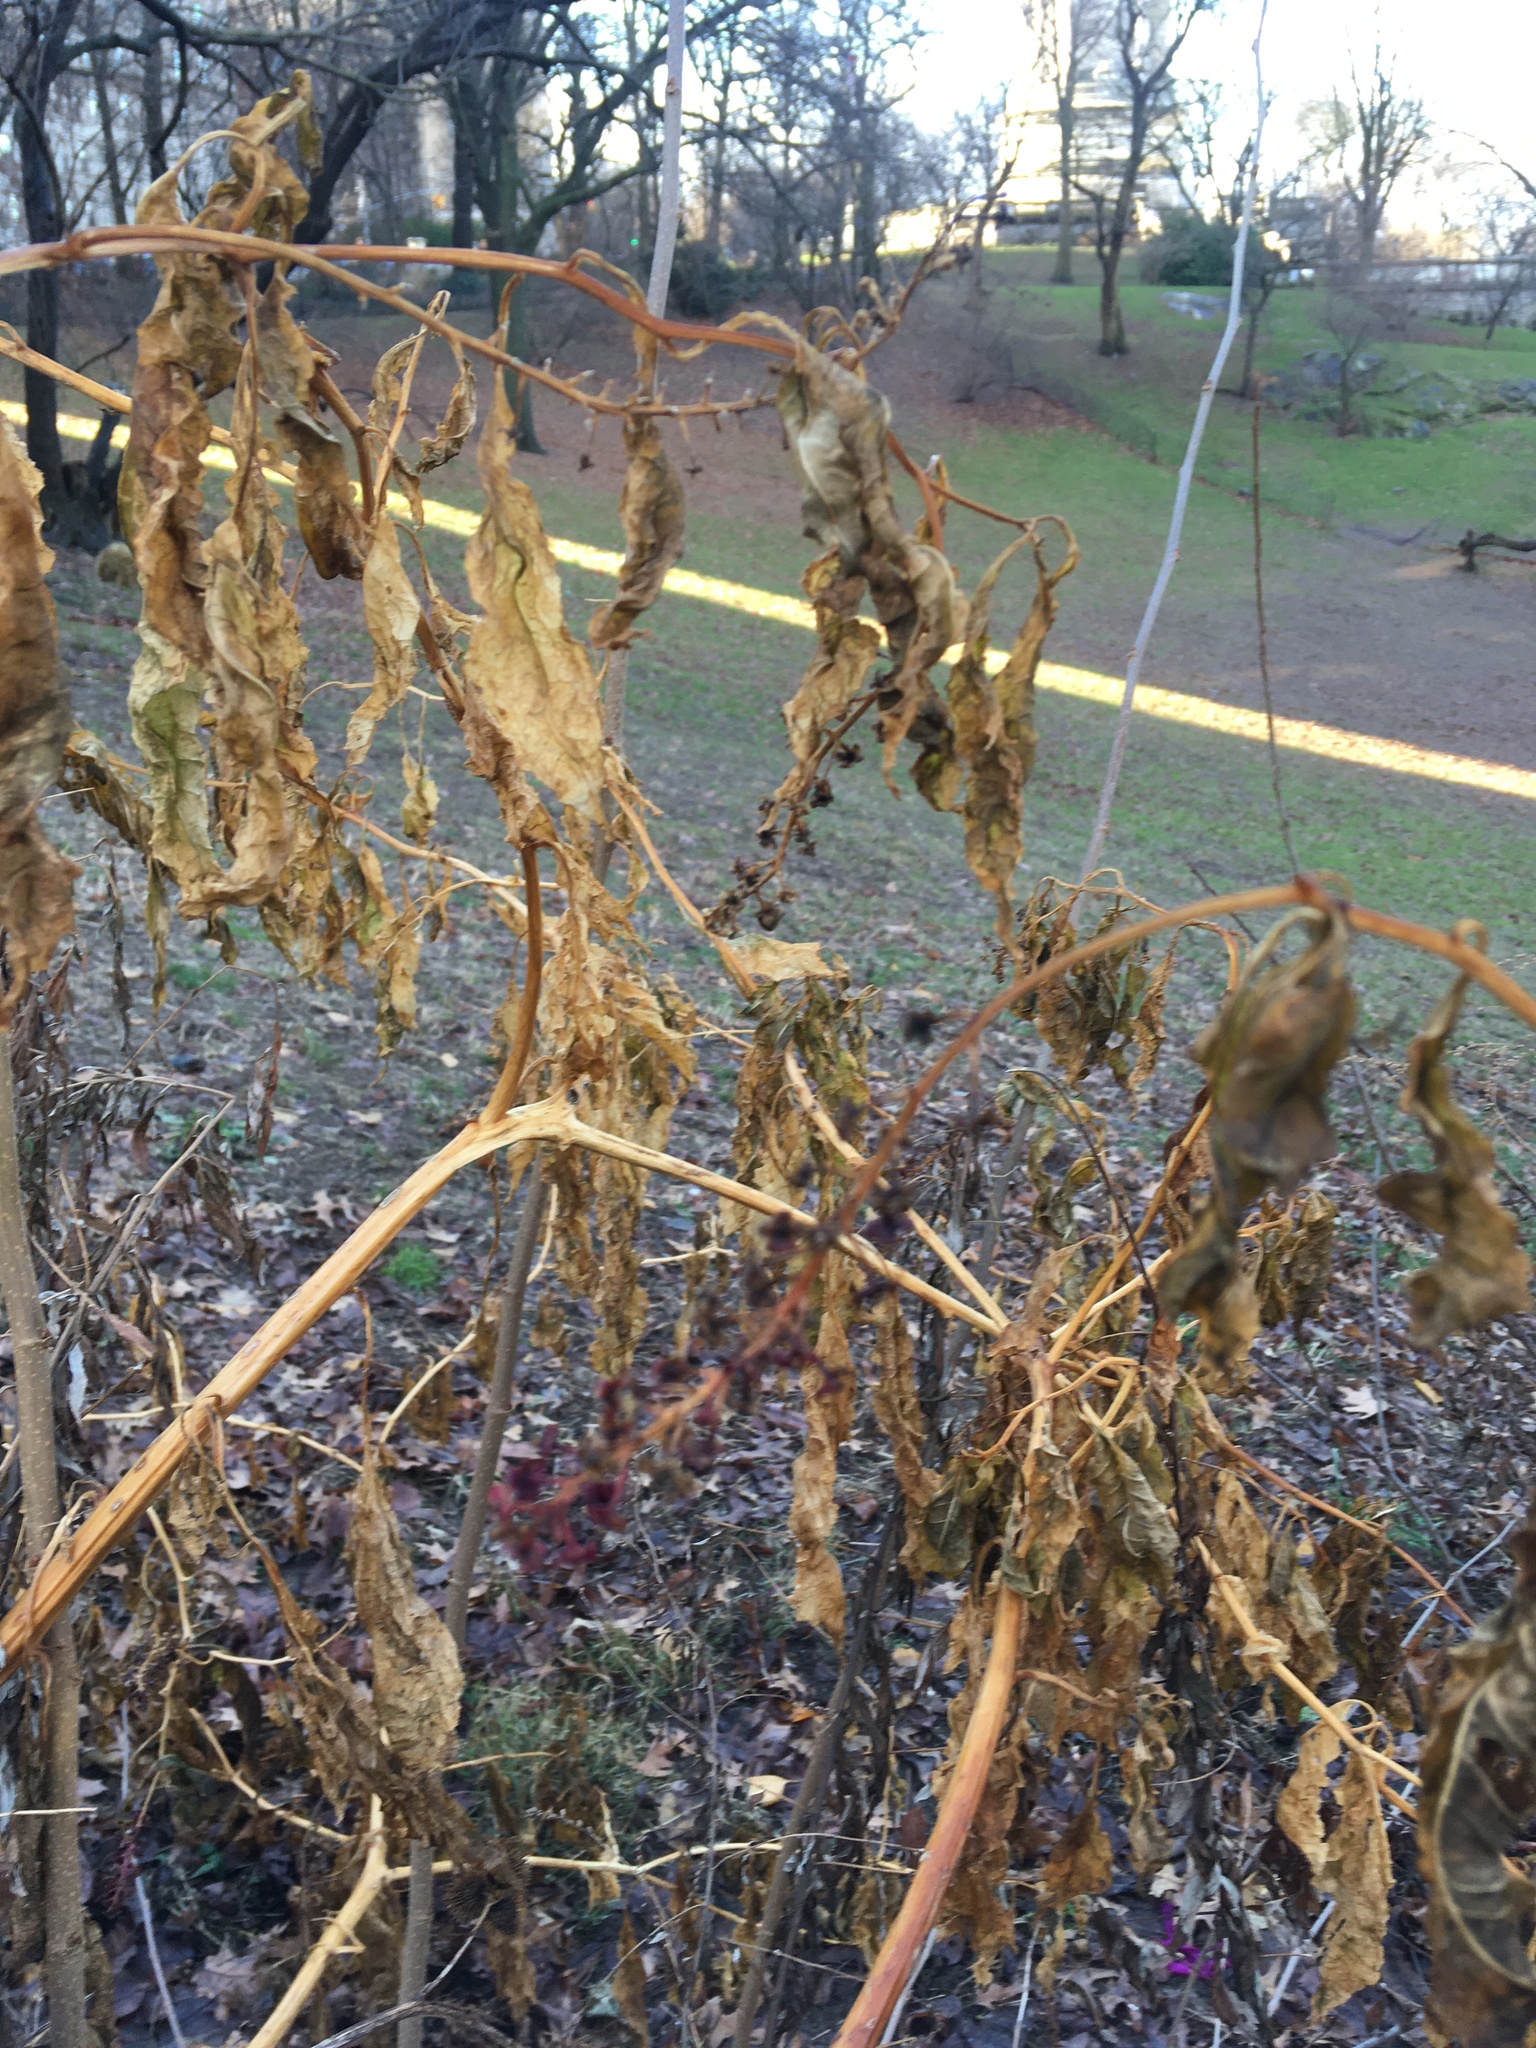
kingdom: Plantae
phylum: Tracheophyta
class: Magnoliopsida
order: Caryophyllales
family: Phytolaccaceae
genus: Phytolacca
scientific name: Phytolacca americana
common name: American pokeweed
